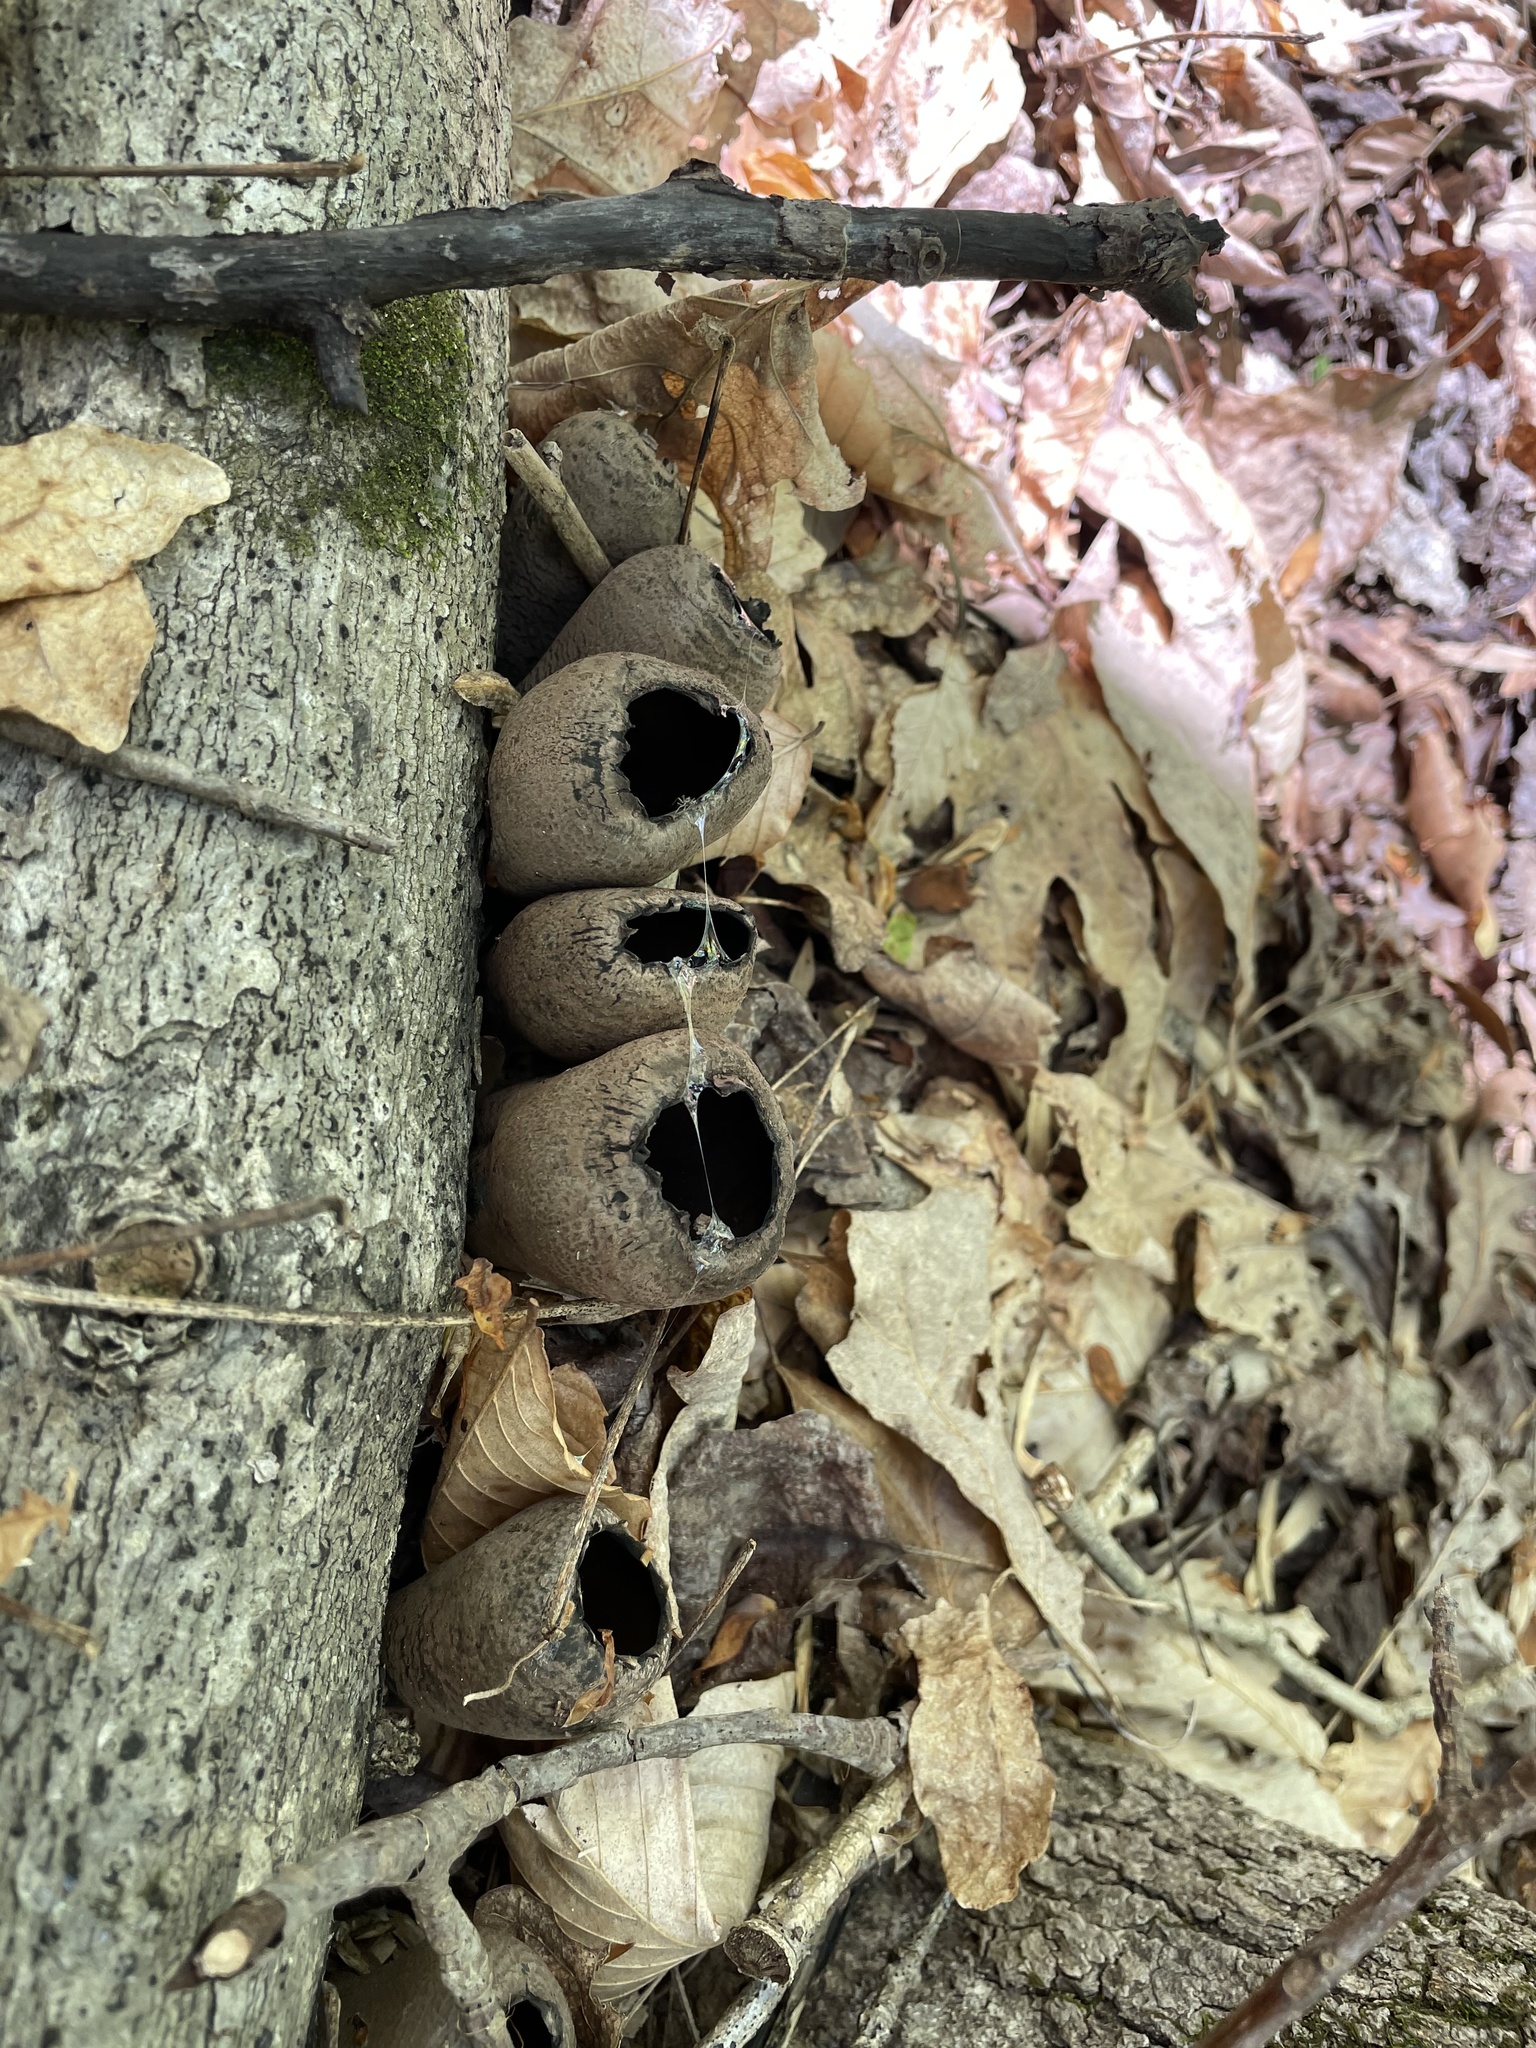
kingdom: Fungi
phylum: Ascomycota
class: Pezizomycetes
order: Pezizales
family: Sarcosomataceae
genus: Urnula
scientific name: Urnula craterium
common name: Devil's urn
